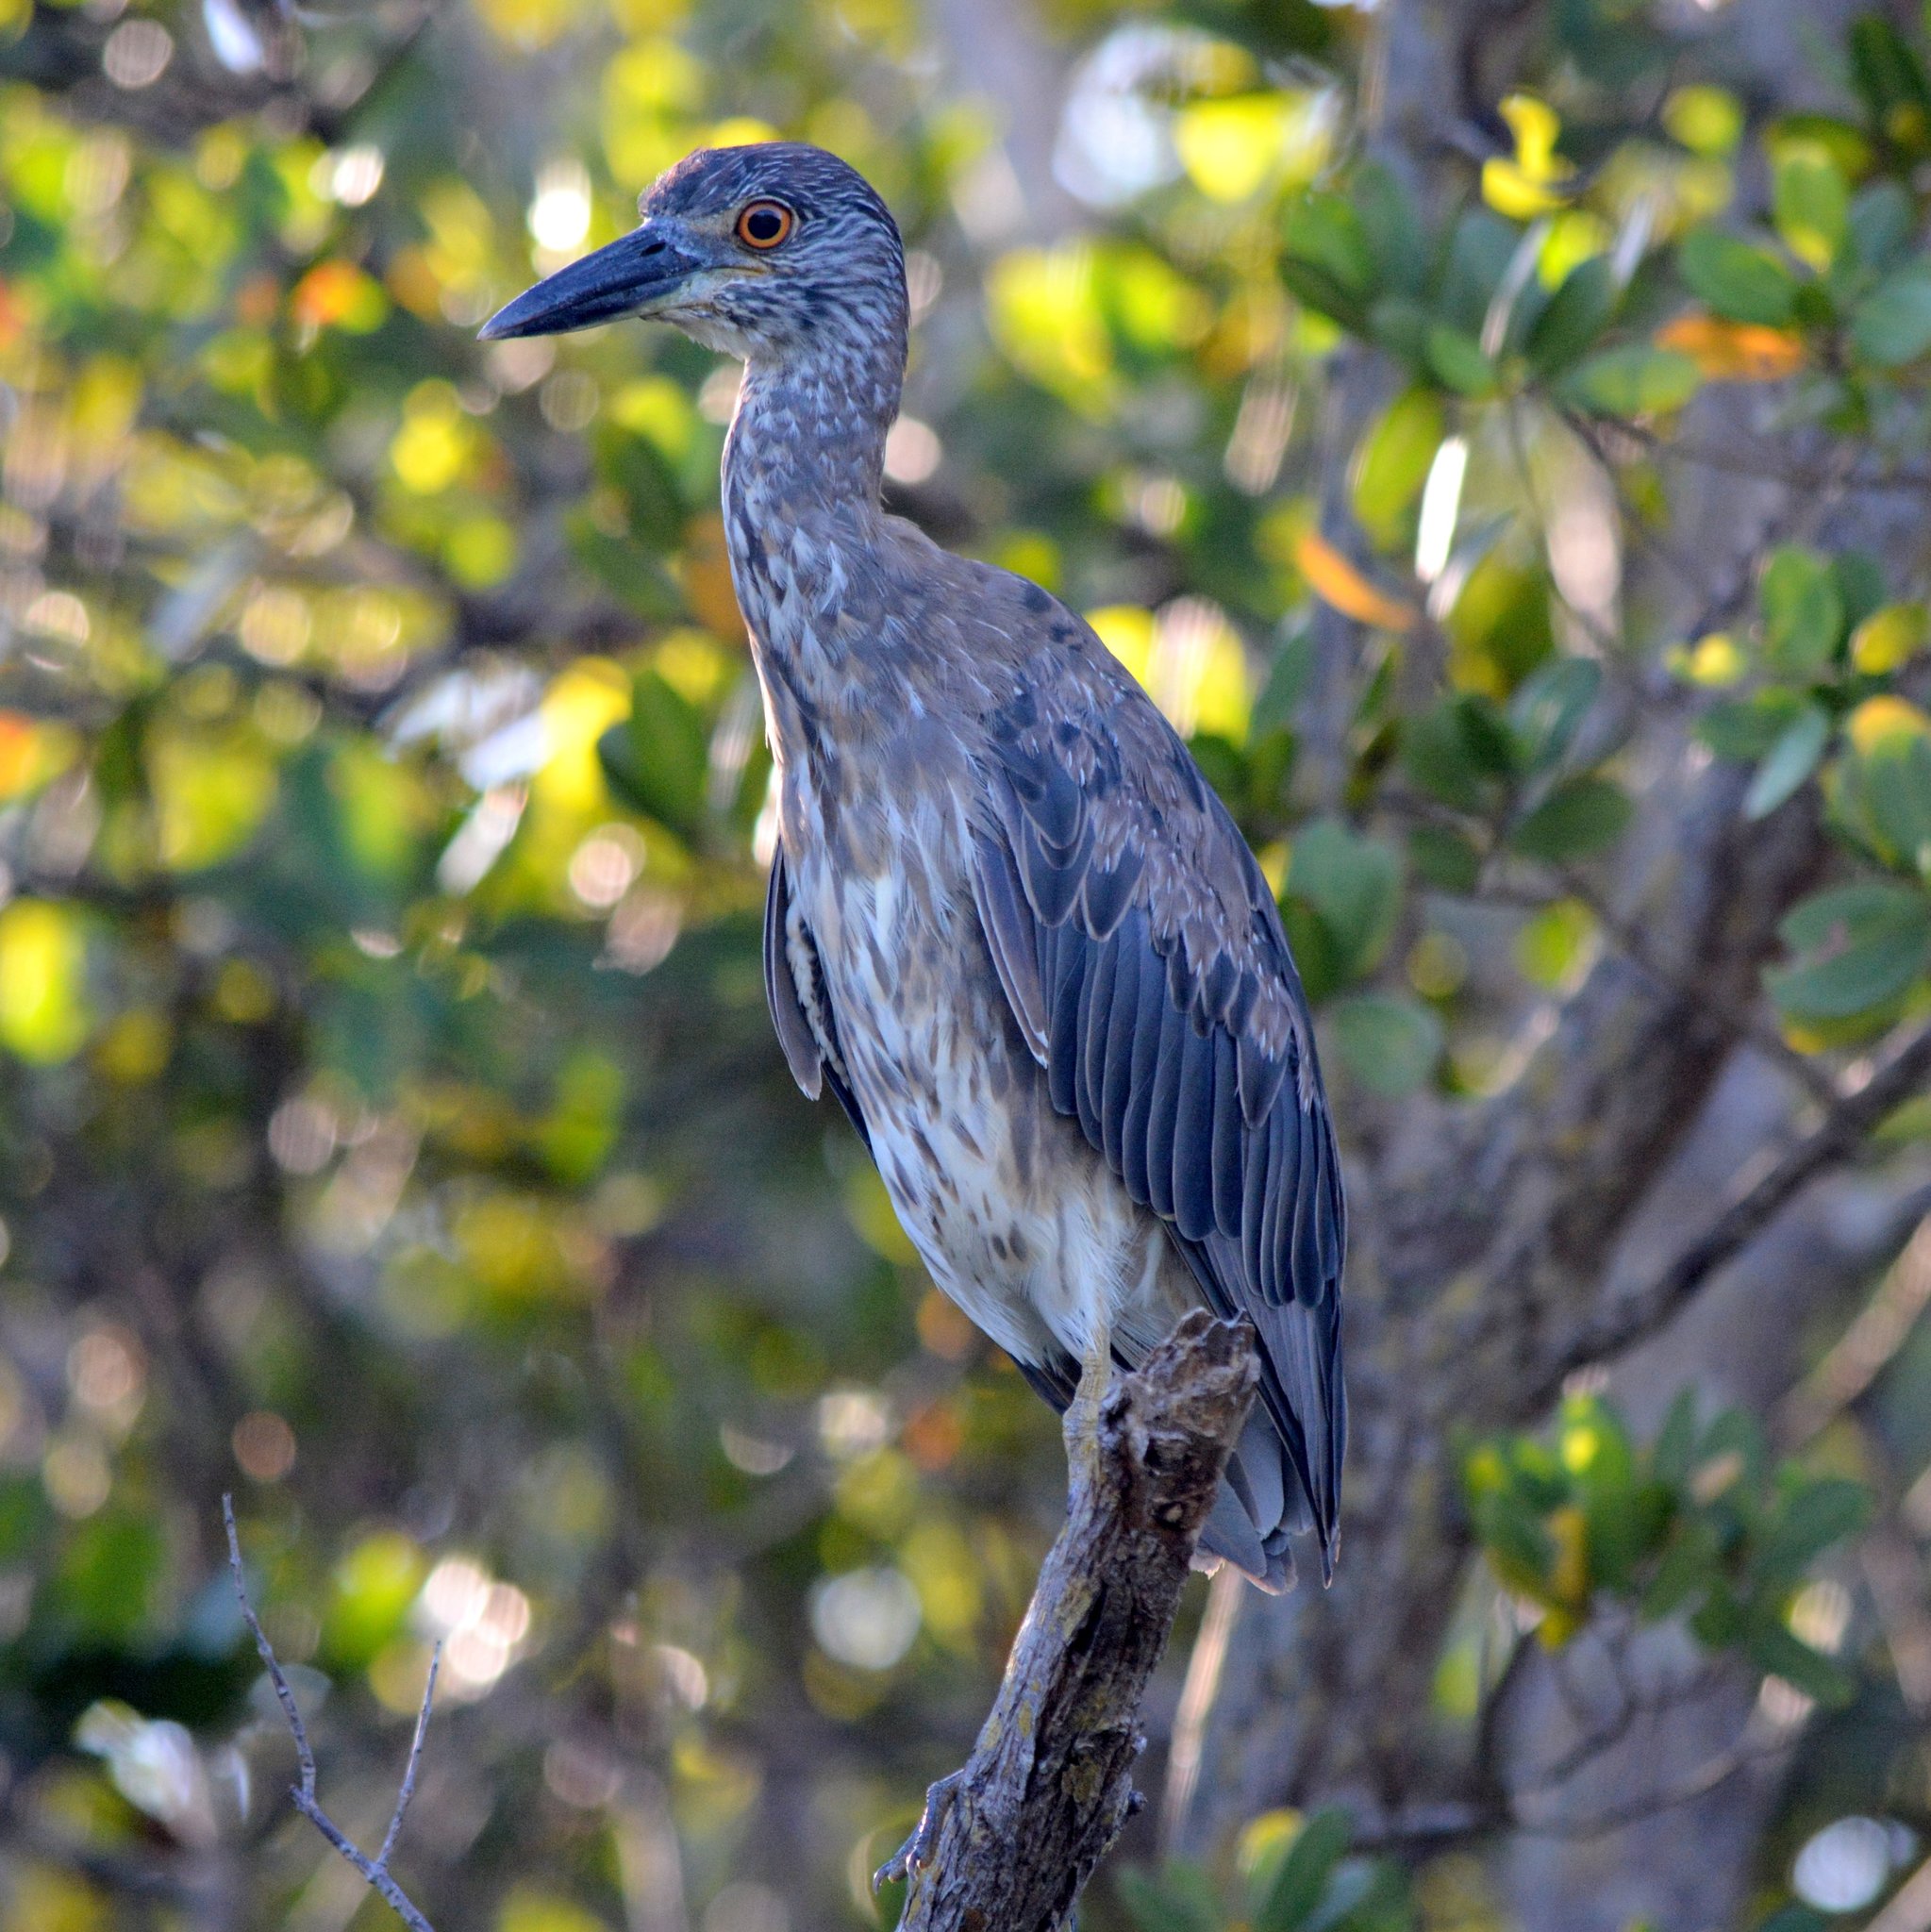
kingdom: Animalia
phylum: Chordata
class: Aves
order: Pelecaniformes
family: Ardeidae
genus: Nyctanassa
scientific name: Nyctanassa violacea
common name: Yellow-crowned night heron
